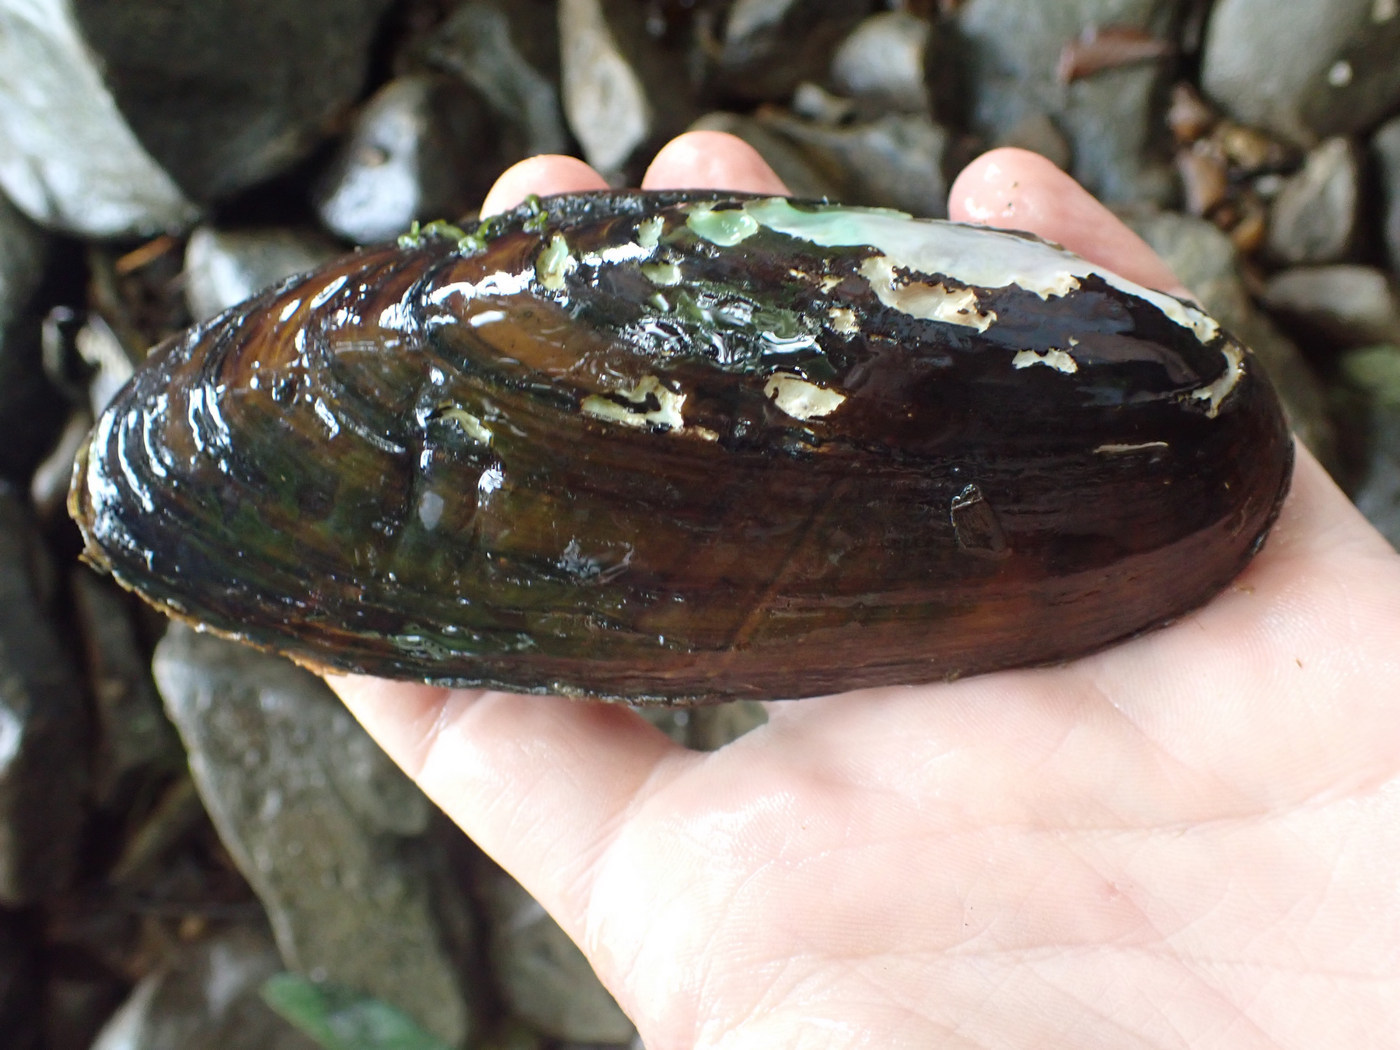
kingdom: Animalia
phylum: Mollusca
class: Bivalvia
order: Unionida
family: Unionidae
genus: Ligumia
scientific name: Ligumia recta
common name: Black sandshell
